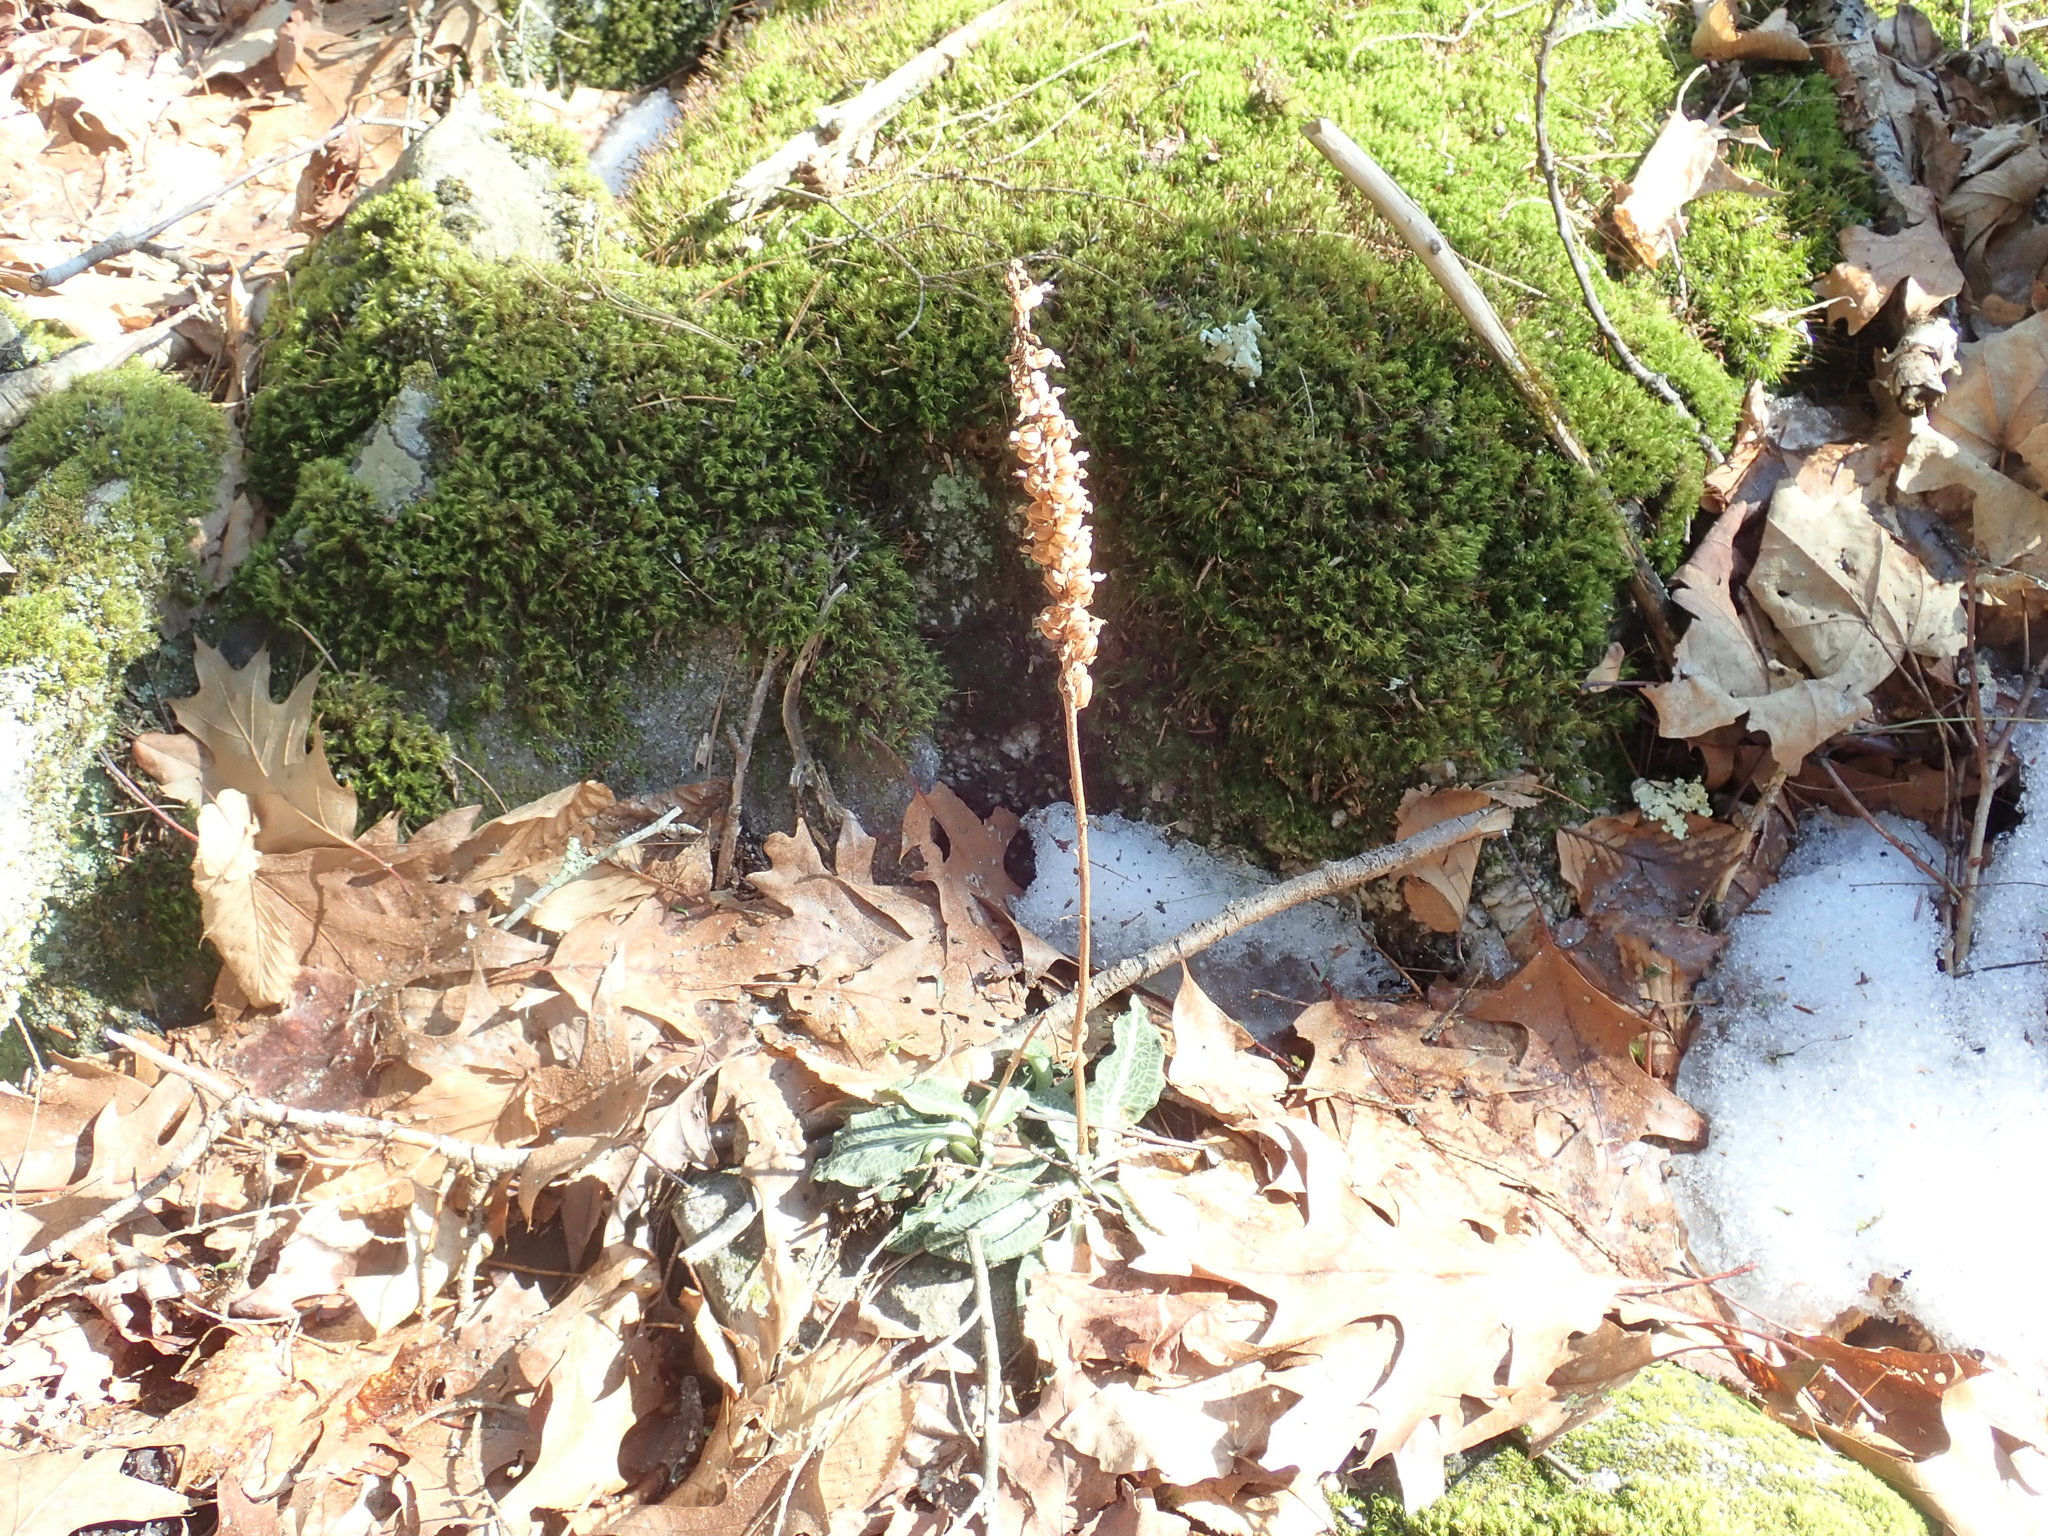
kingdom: Plantae
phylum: Tracheophyta
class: Liliopsida
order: Asparagales
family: Orchidaceae
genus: Goodyera
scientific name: Goodyera pubescens
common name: Downy rattlesnake-plantain
